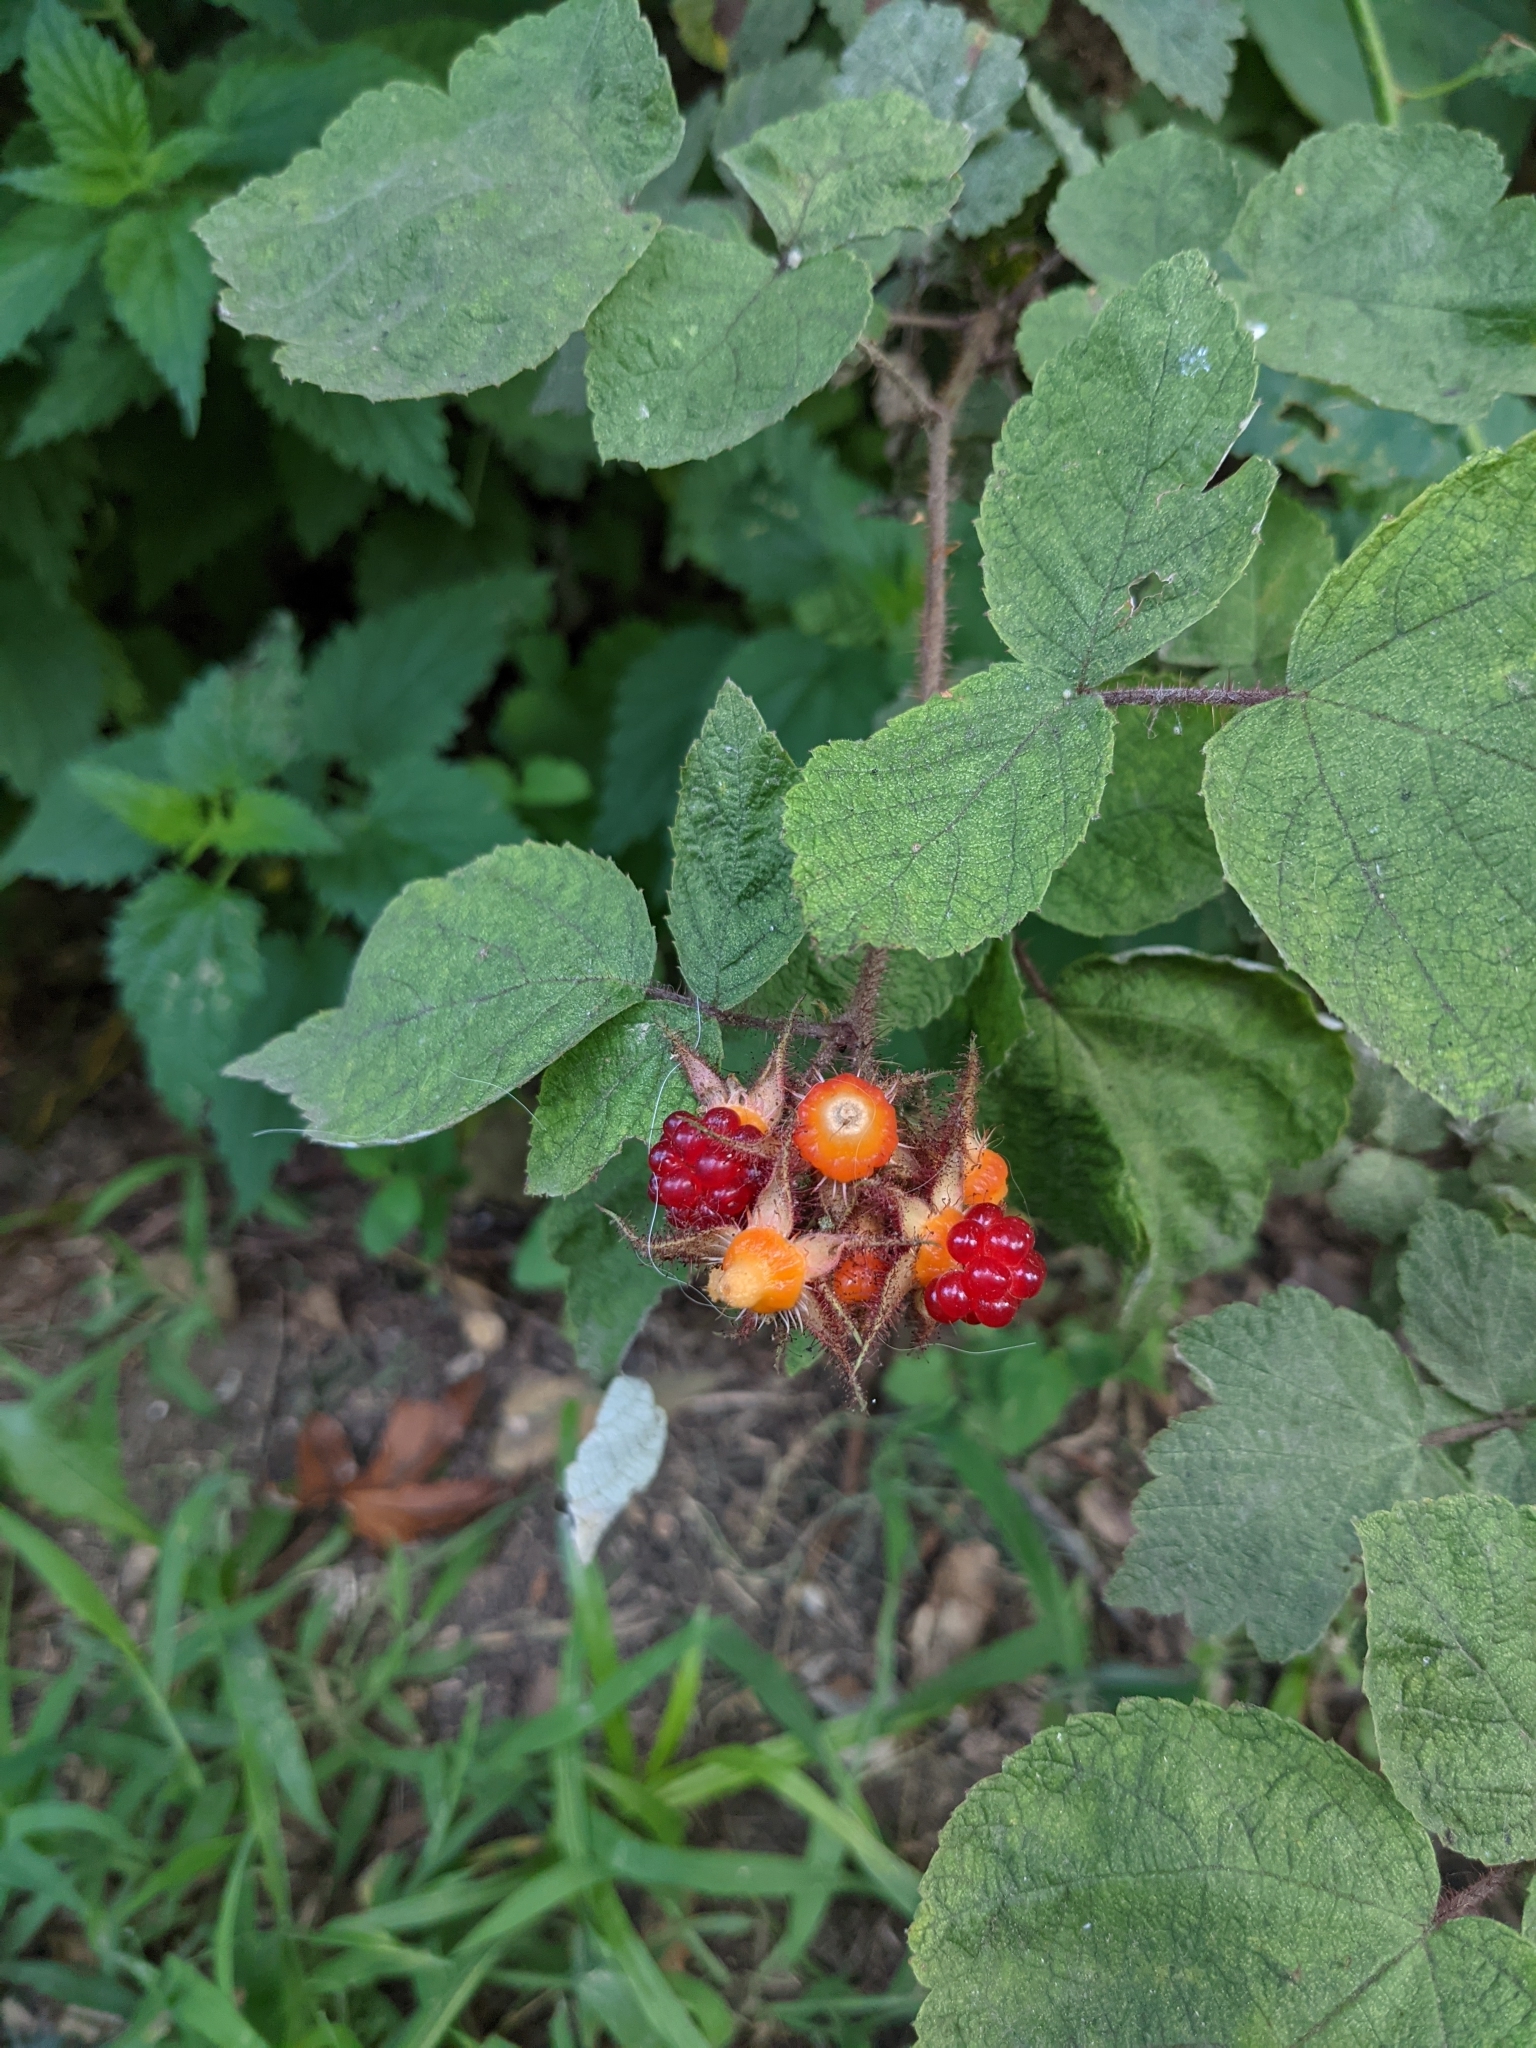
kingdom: Plantae
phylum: Tracheophyta
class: Magnoliopsida
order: Rosales
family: Rosaceae
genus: Rubus
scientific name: Rubus phoenicolasius
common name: Japanese wineberry
